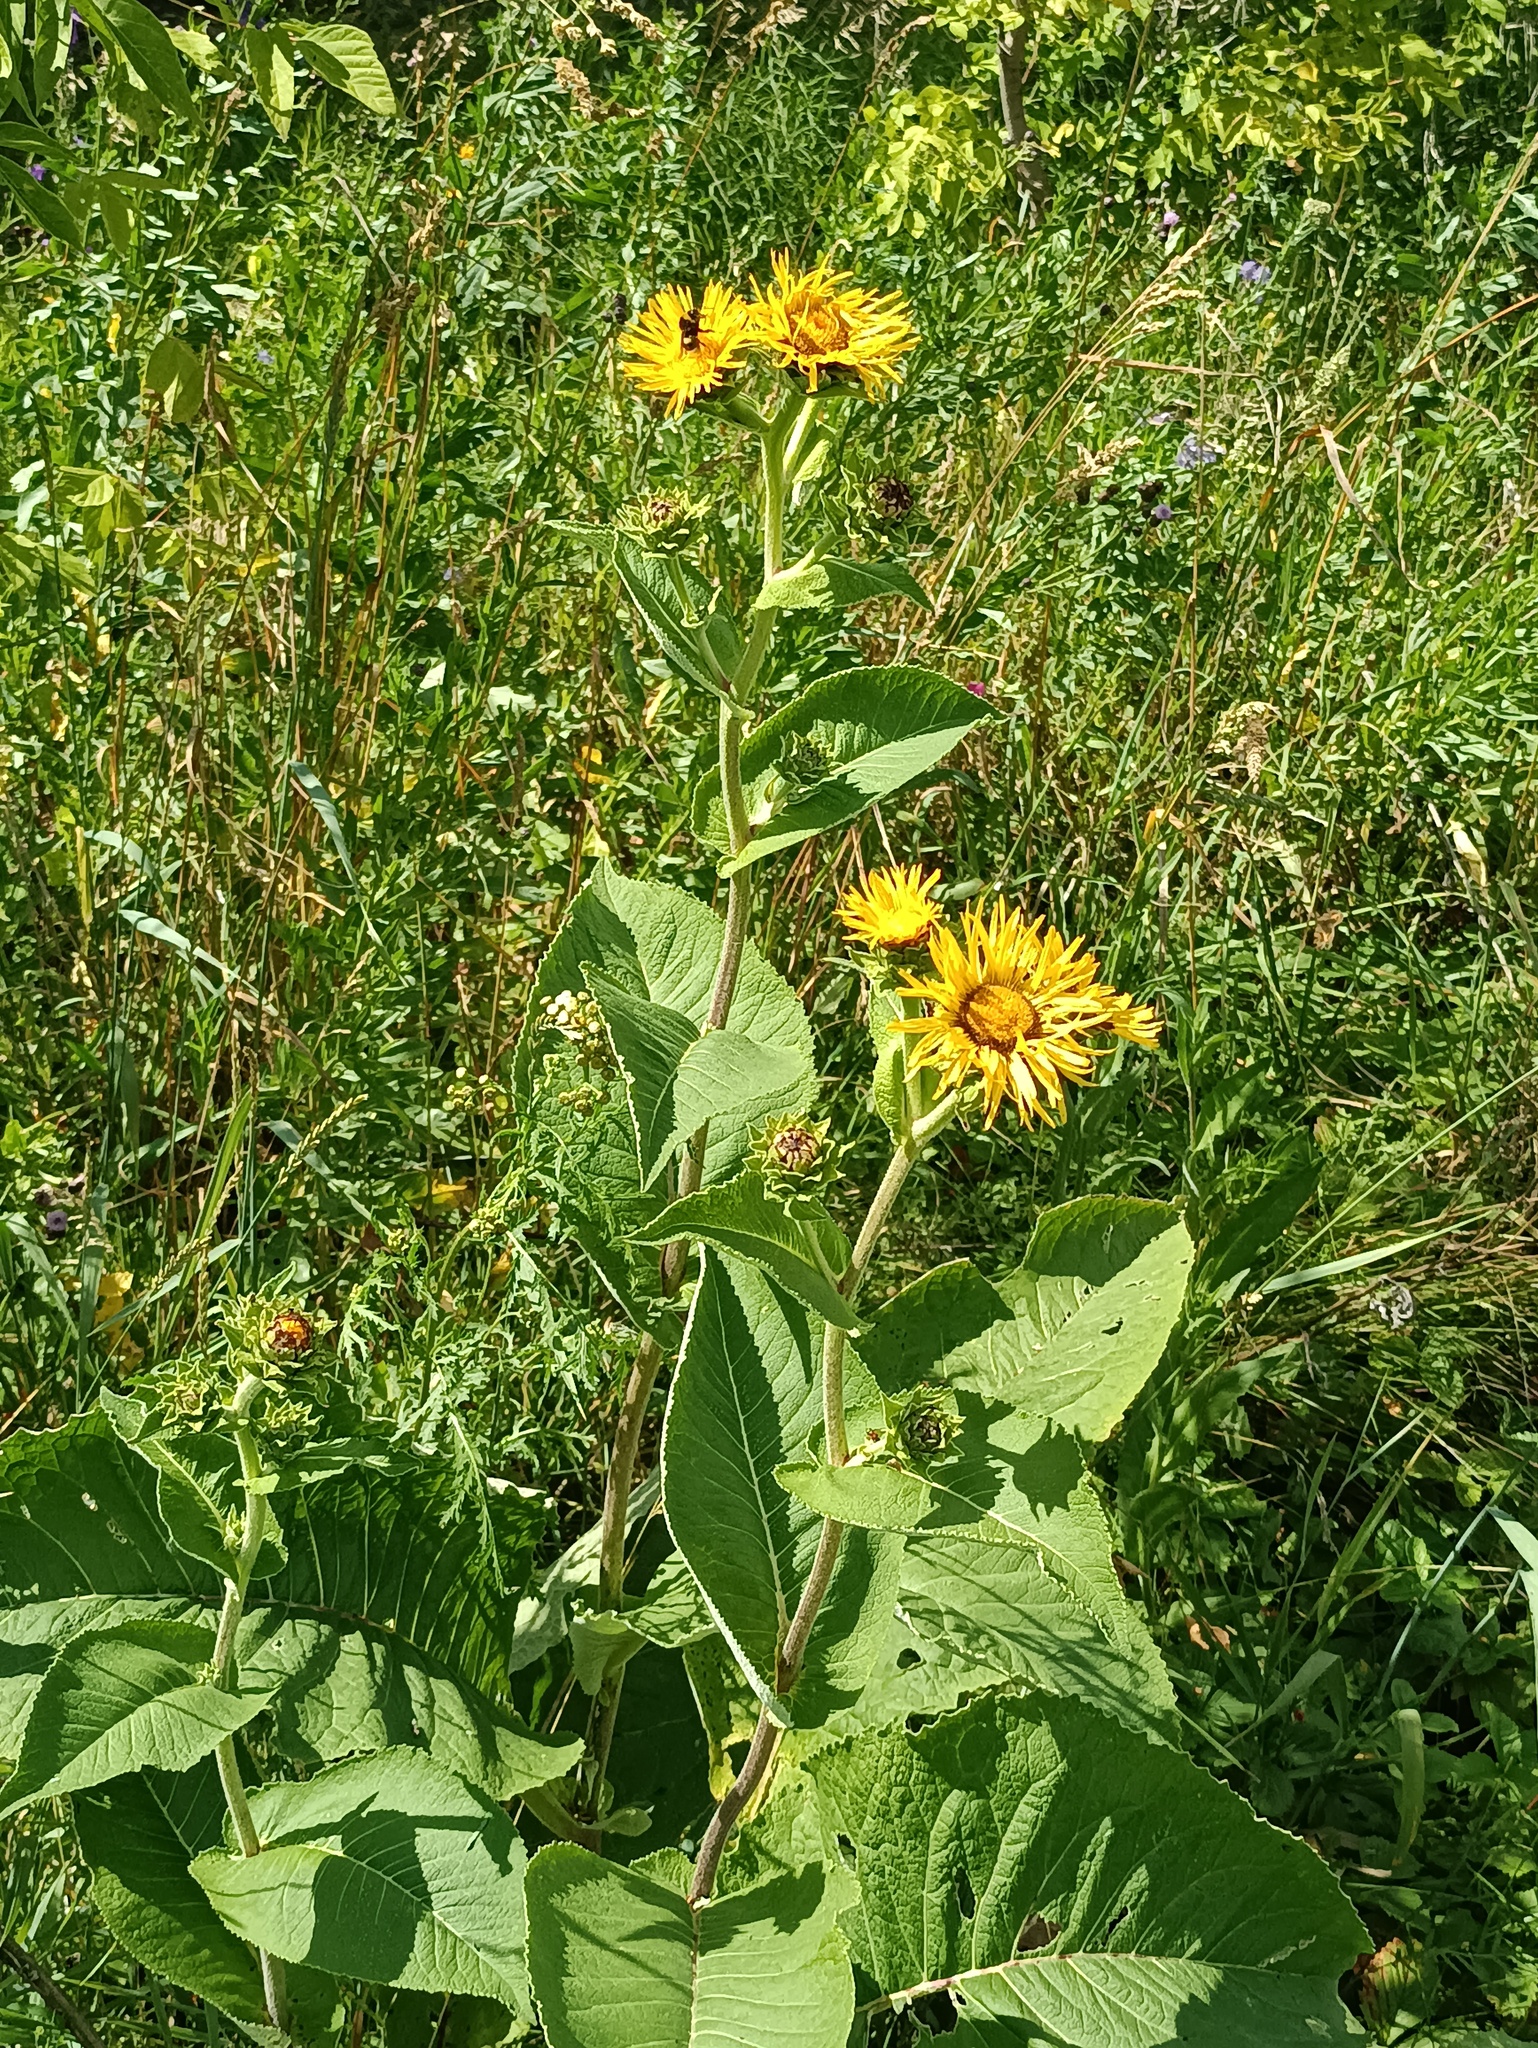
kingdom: Plantae
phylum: Tracheophyta
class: Magnoliopsida
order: Asterales
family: Asteraceae
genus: Inula
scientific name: Inula helenium
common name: Elecampane
